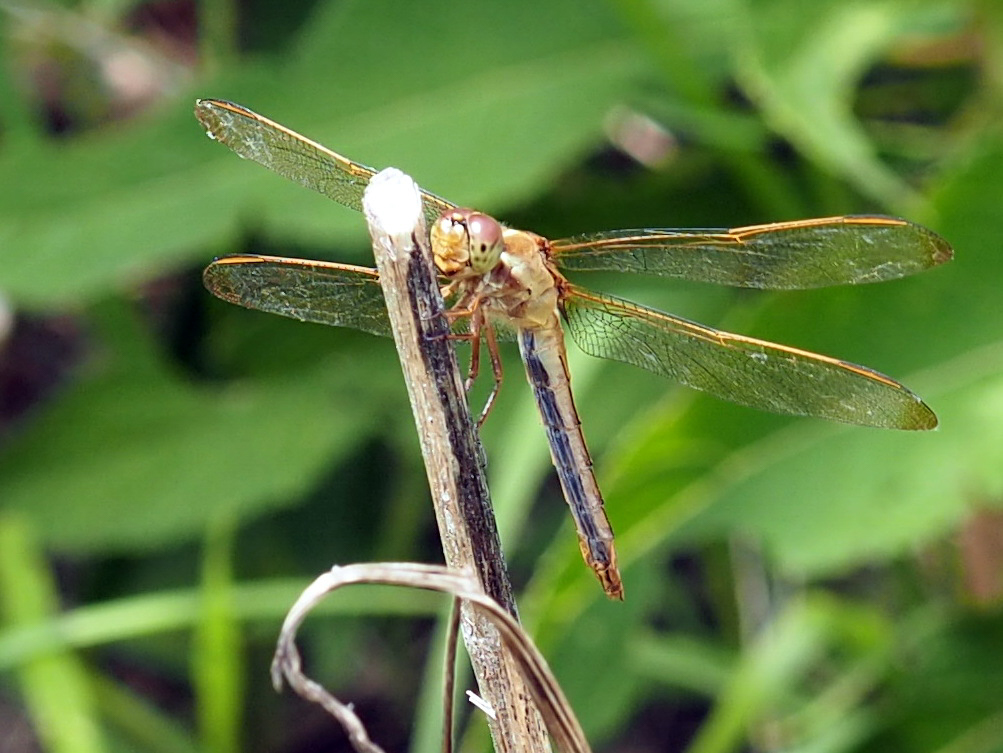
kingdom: Animalia
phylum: Arthropoda
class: Insecta
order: Odonata
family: Libellulidae
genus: Libellula
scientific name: Libellula needhami
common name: Needham's skimmer
